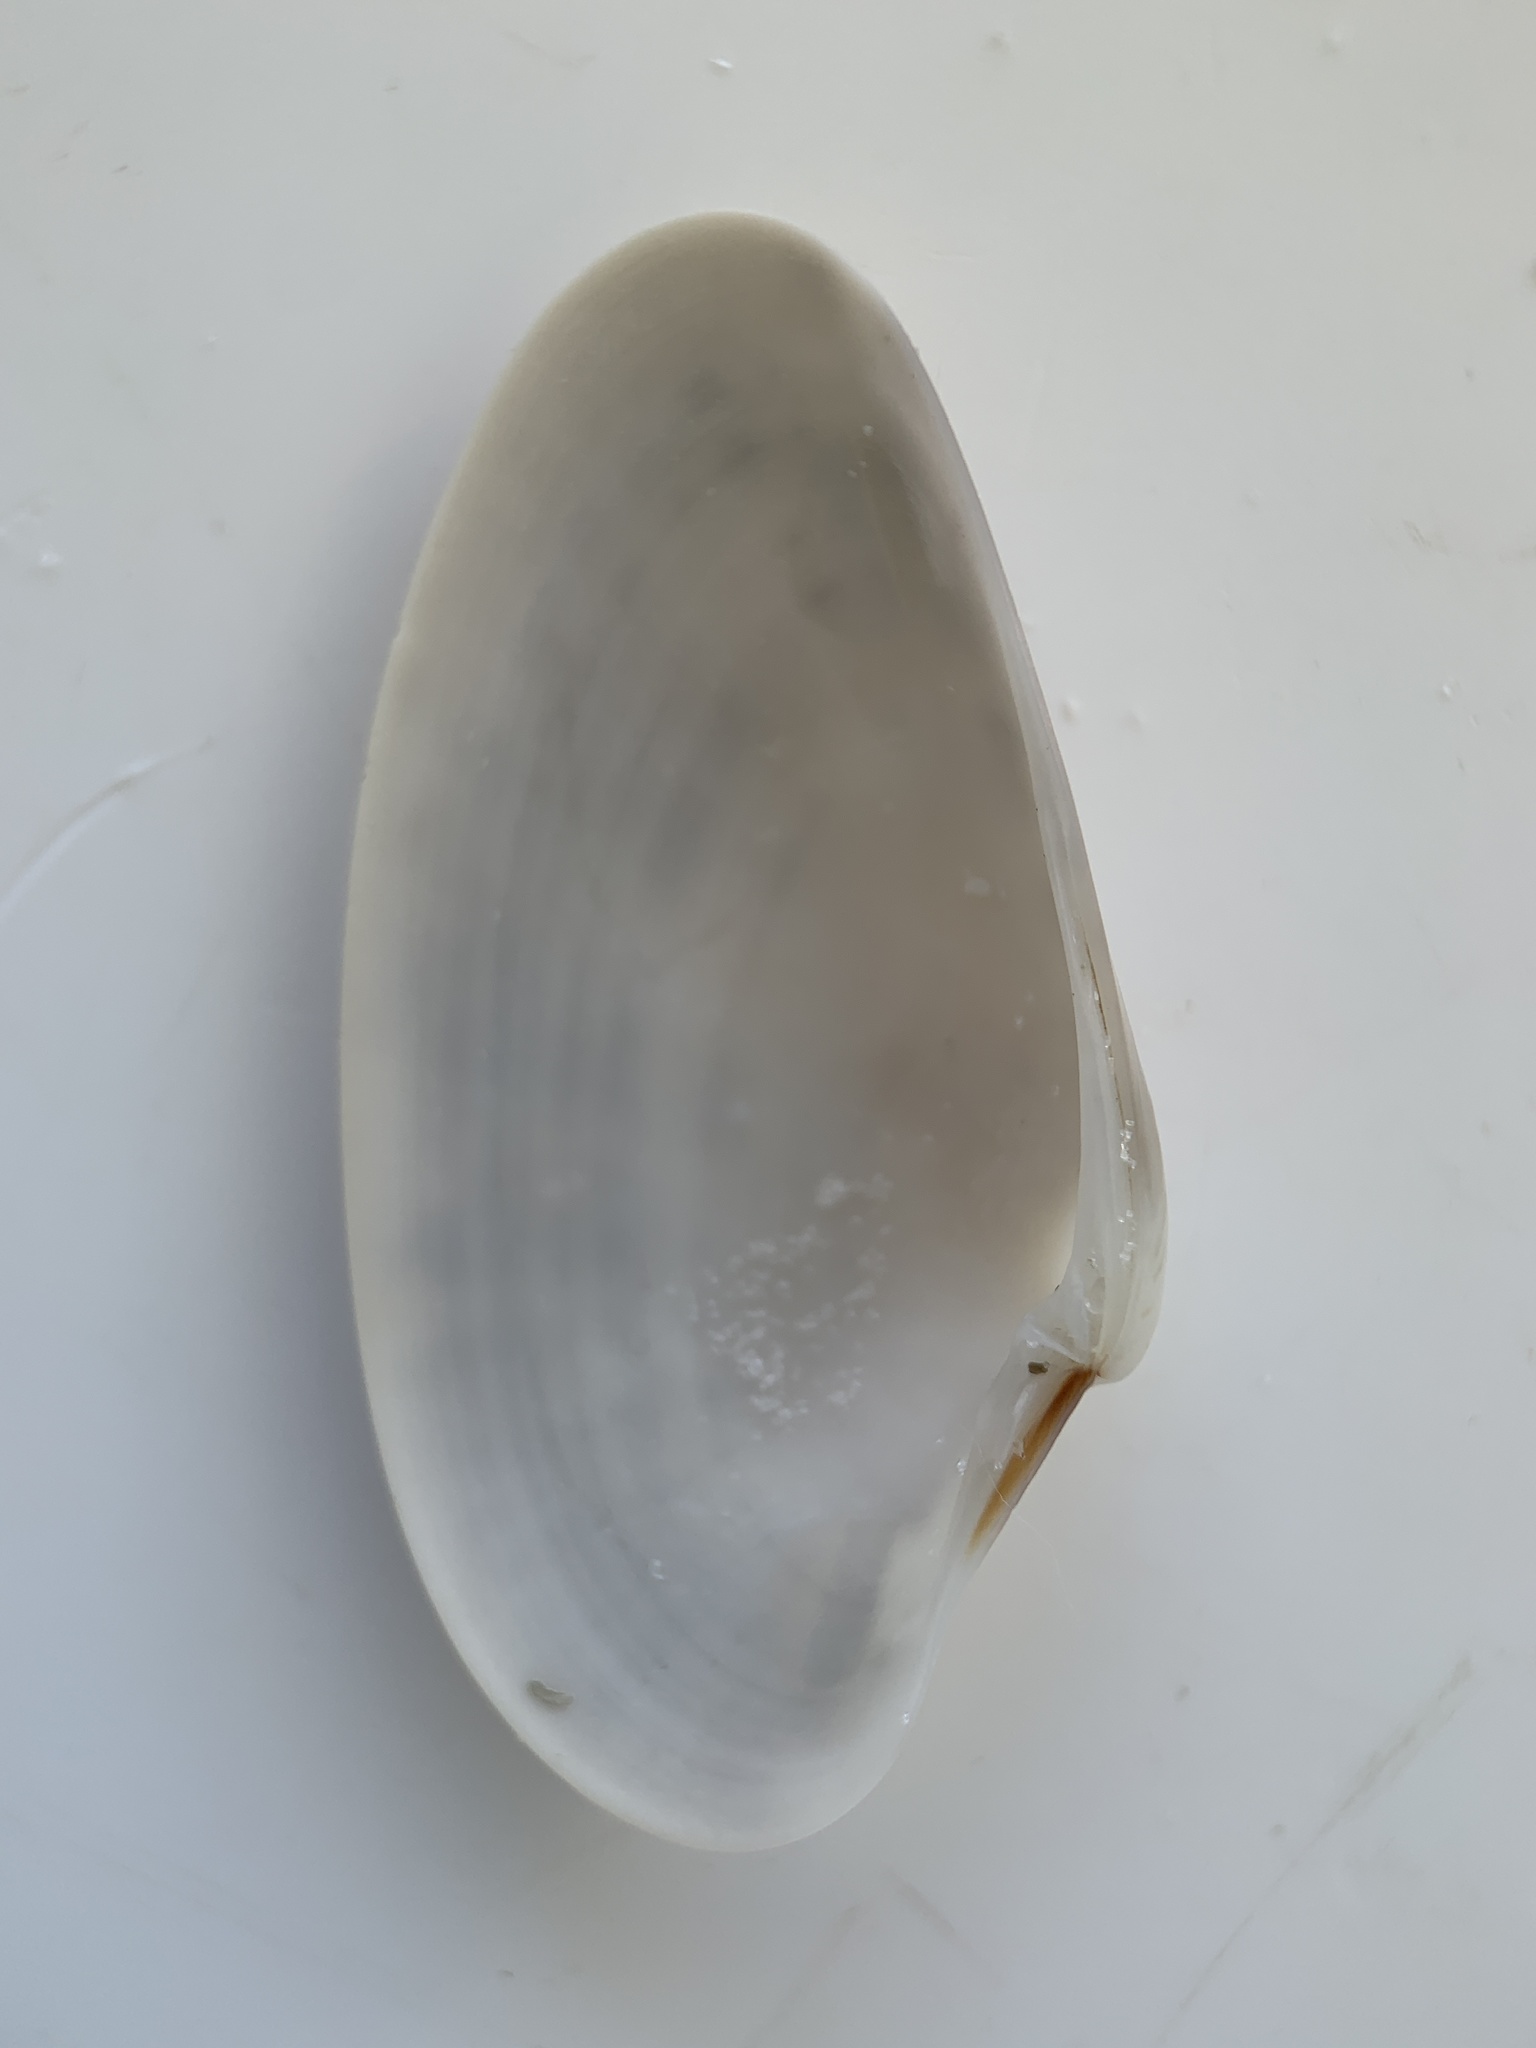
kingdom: Animalia
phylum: Mollusca
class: Bivalvia
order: Venerida
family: Veneridae
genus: Macrocallista
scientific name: Macrocallista nimbosa
